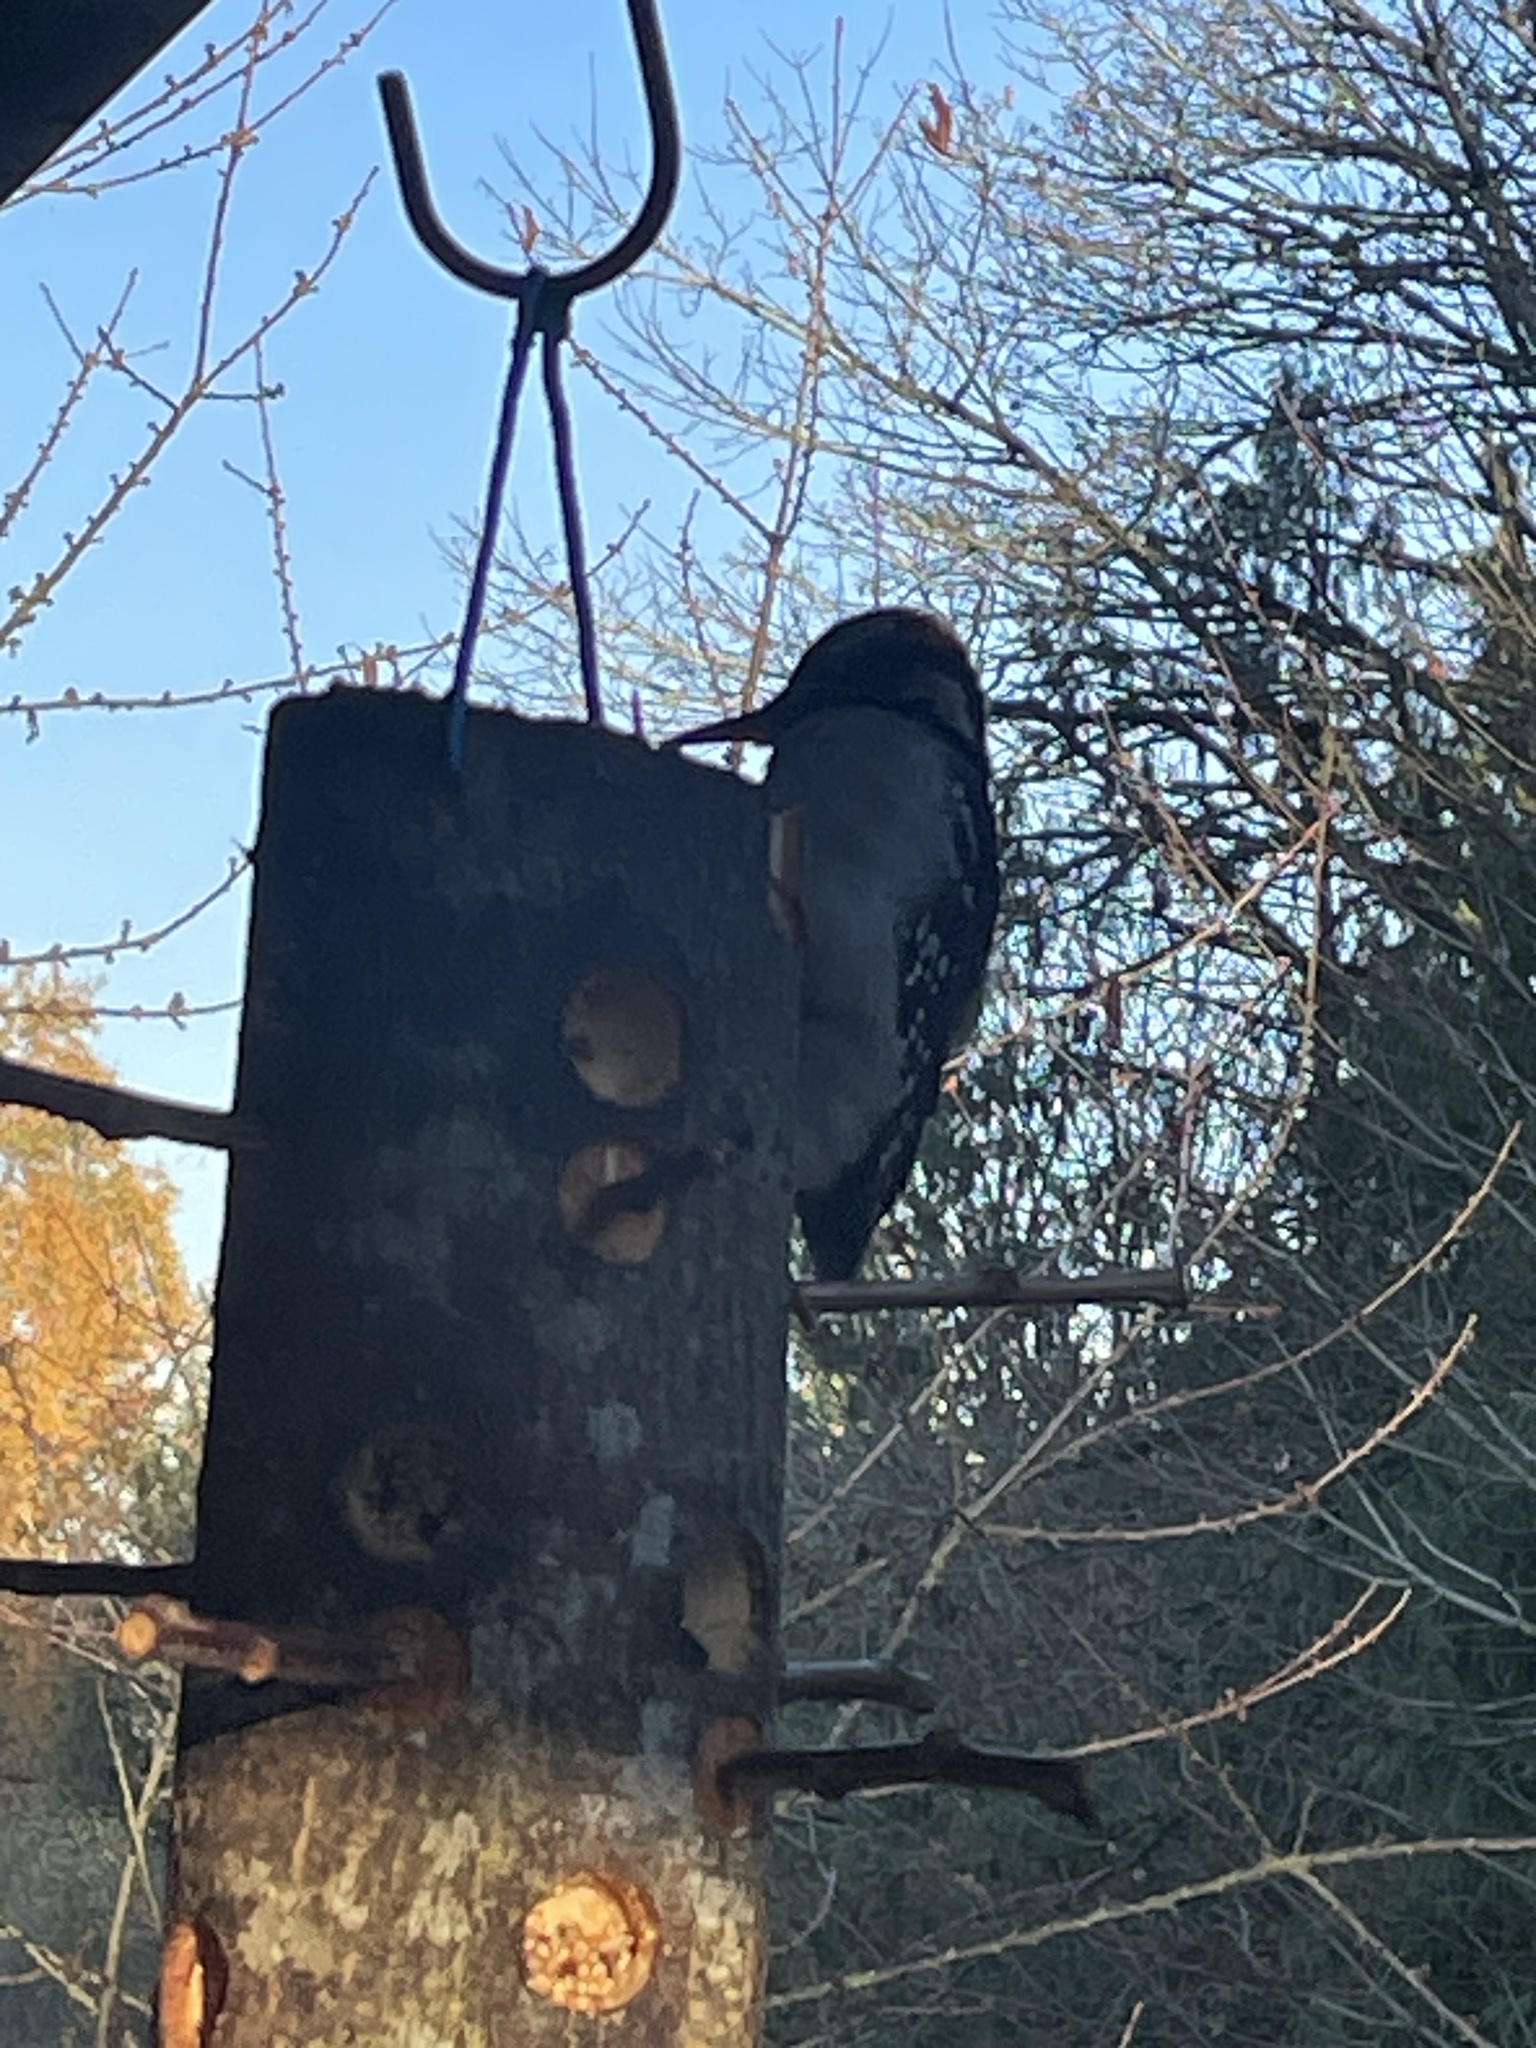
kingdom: Animalia
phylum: Chordata
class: Aves
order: Piciformes
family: Picidae
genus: Leuconotopicus
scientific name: Leuconotopicus villosus
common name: Hairy woodpecker
